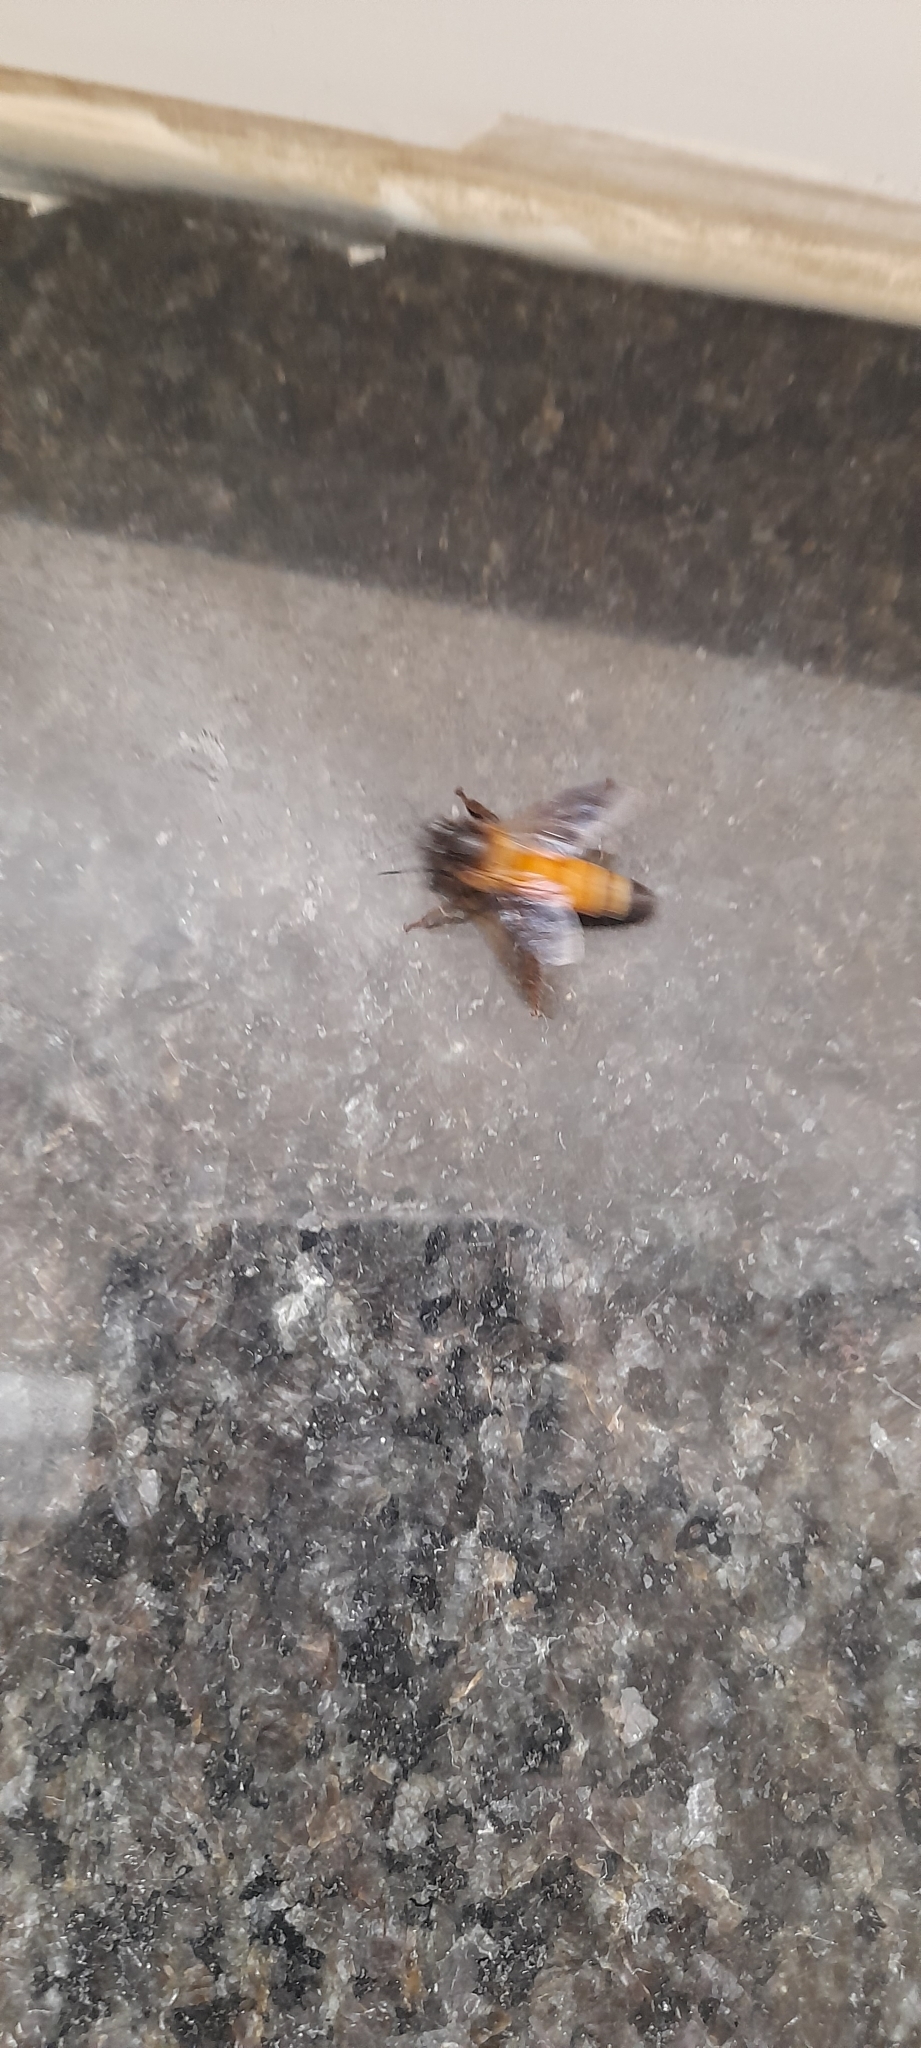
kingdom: Animalia
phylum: Arthropoda
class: Insecta
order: Hymenoptera
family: Apidae
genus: Apis
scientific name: Apis dorsata
